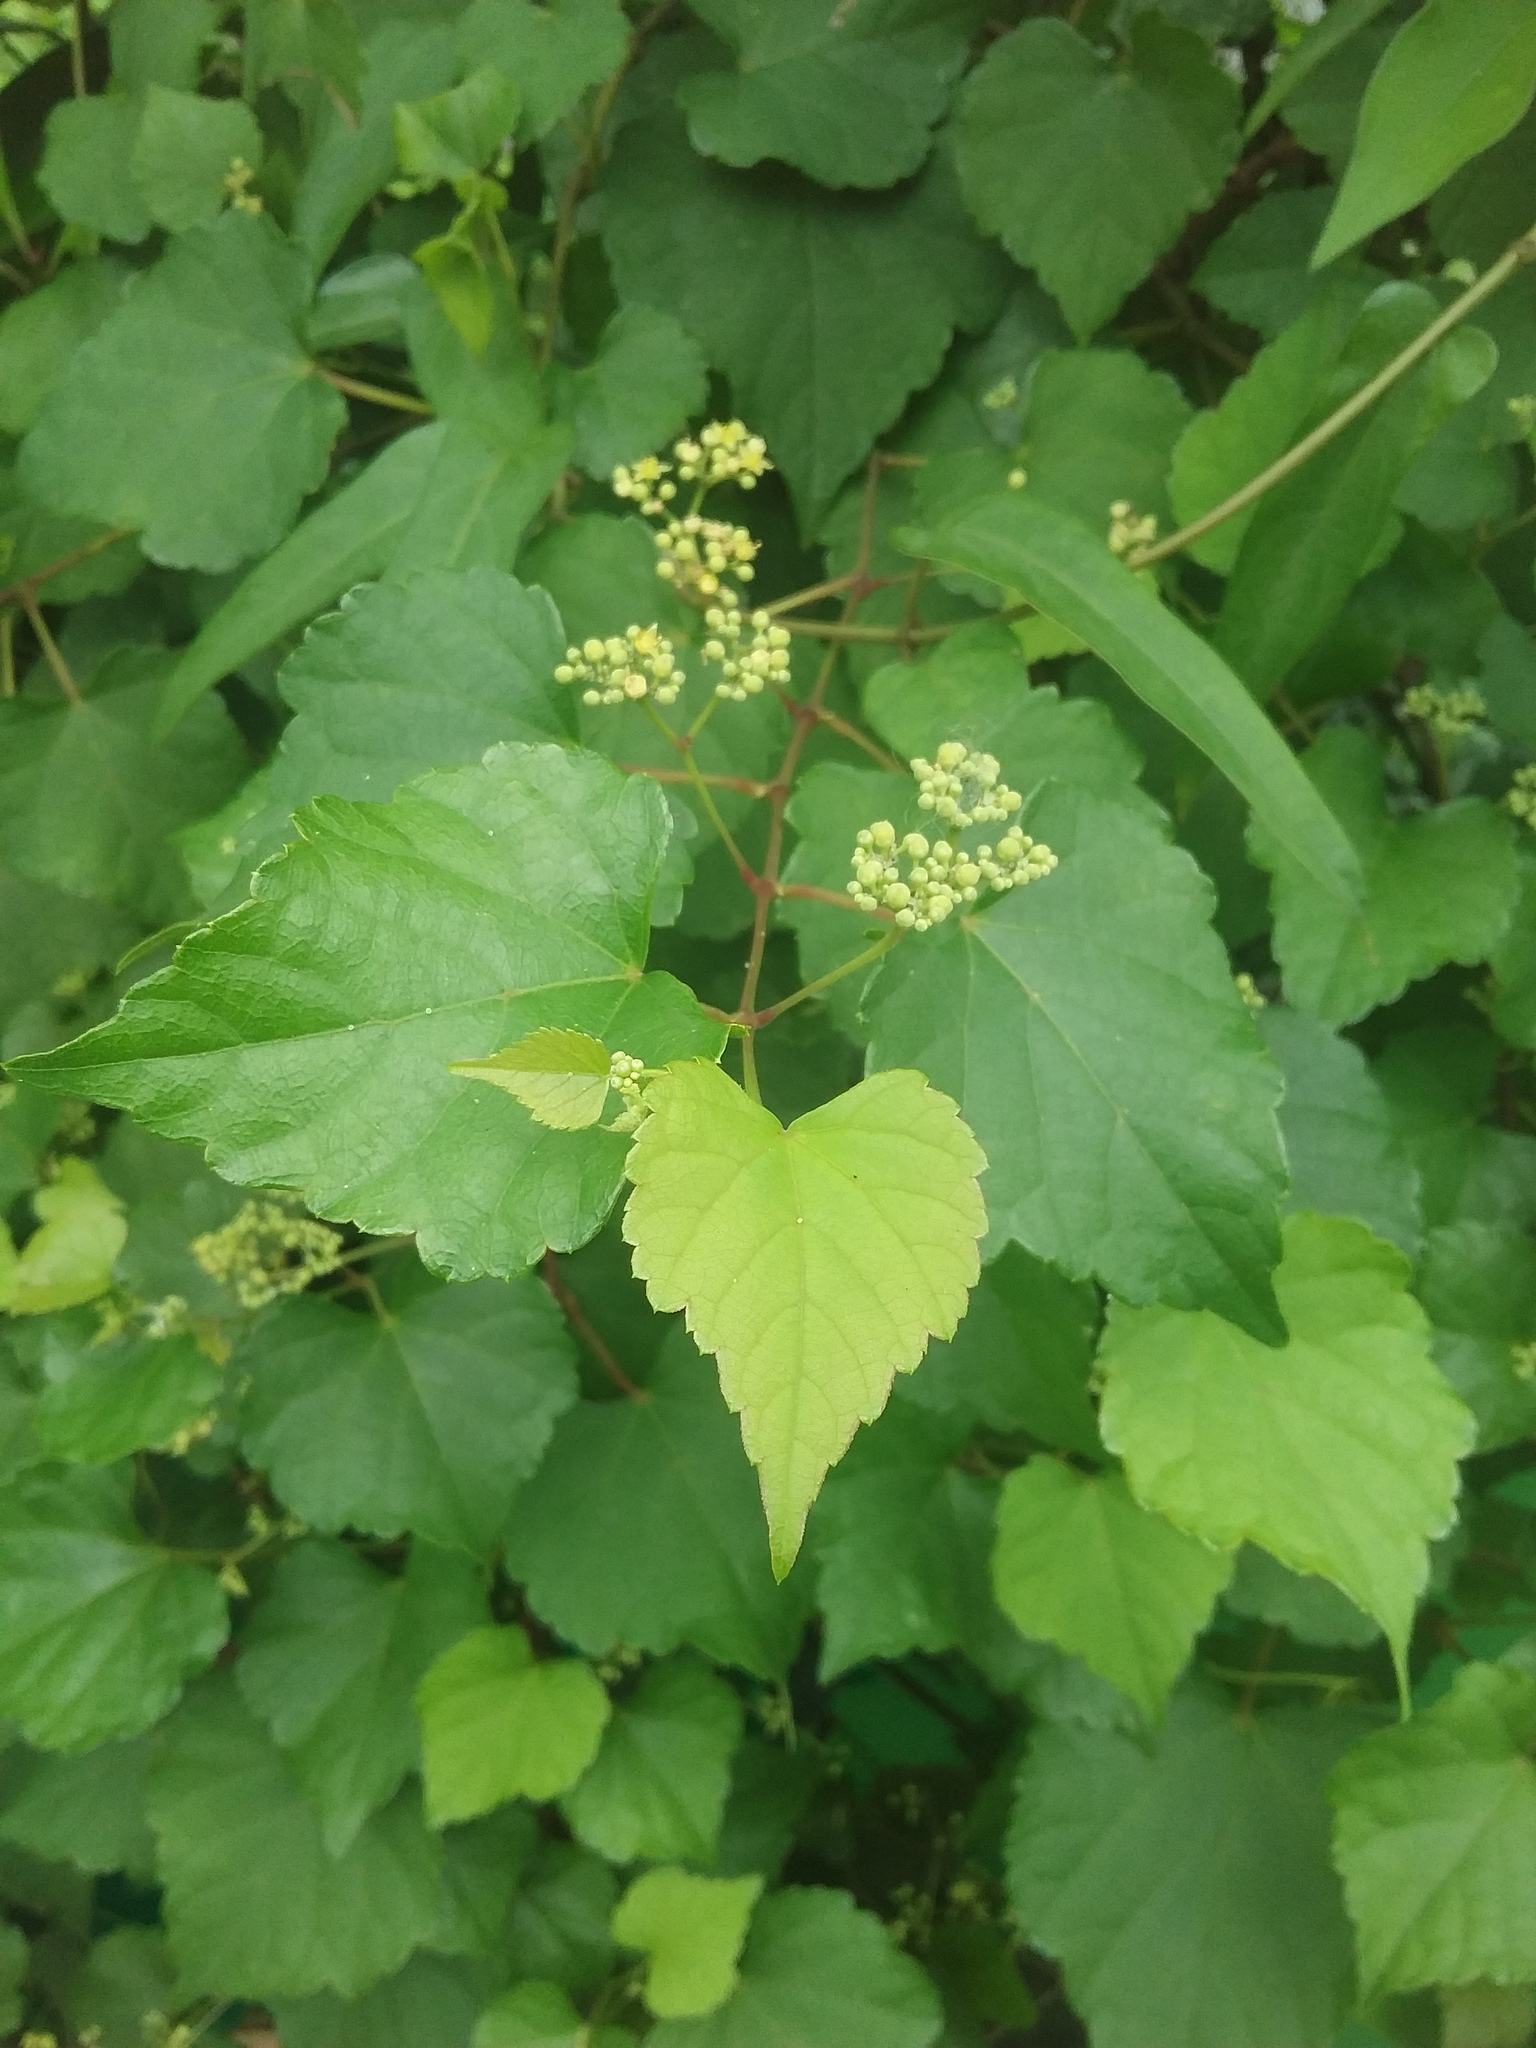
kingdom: Plantae
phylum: Tracheophyta
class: Magnoliopsida
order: Vitales
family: Vitaceae
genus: Ampelopsis
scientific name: Ampelopsis glandulosa
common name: Amur peppervine
